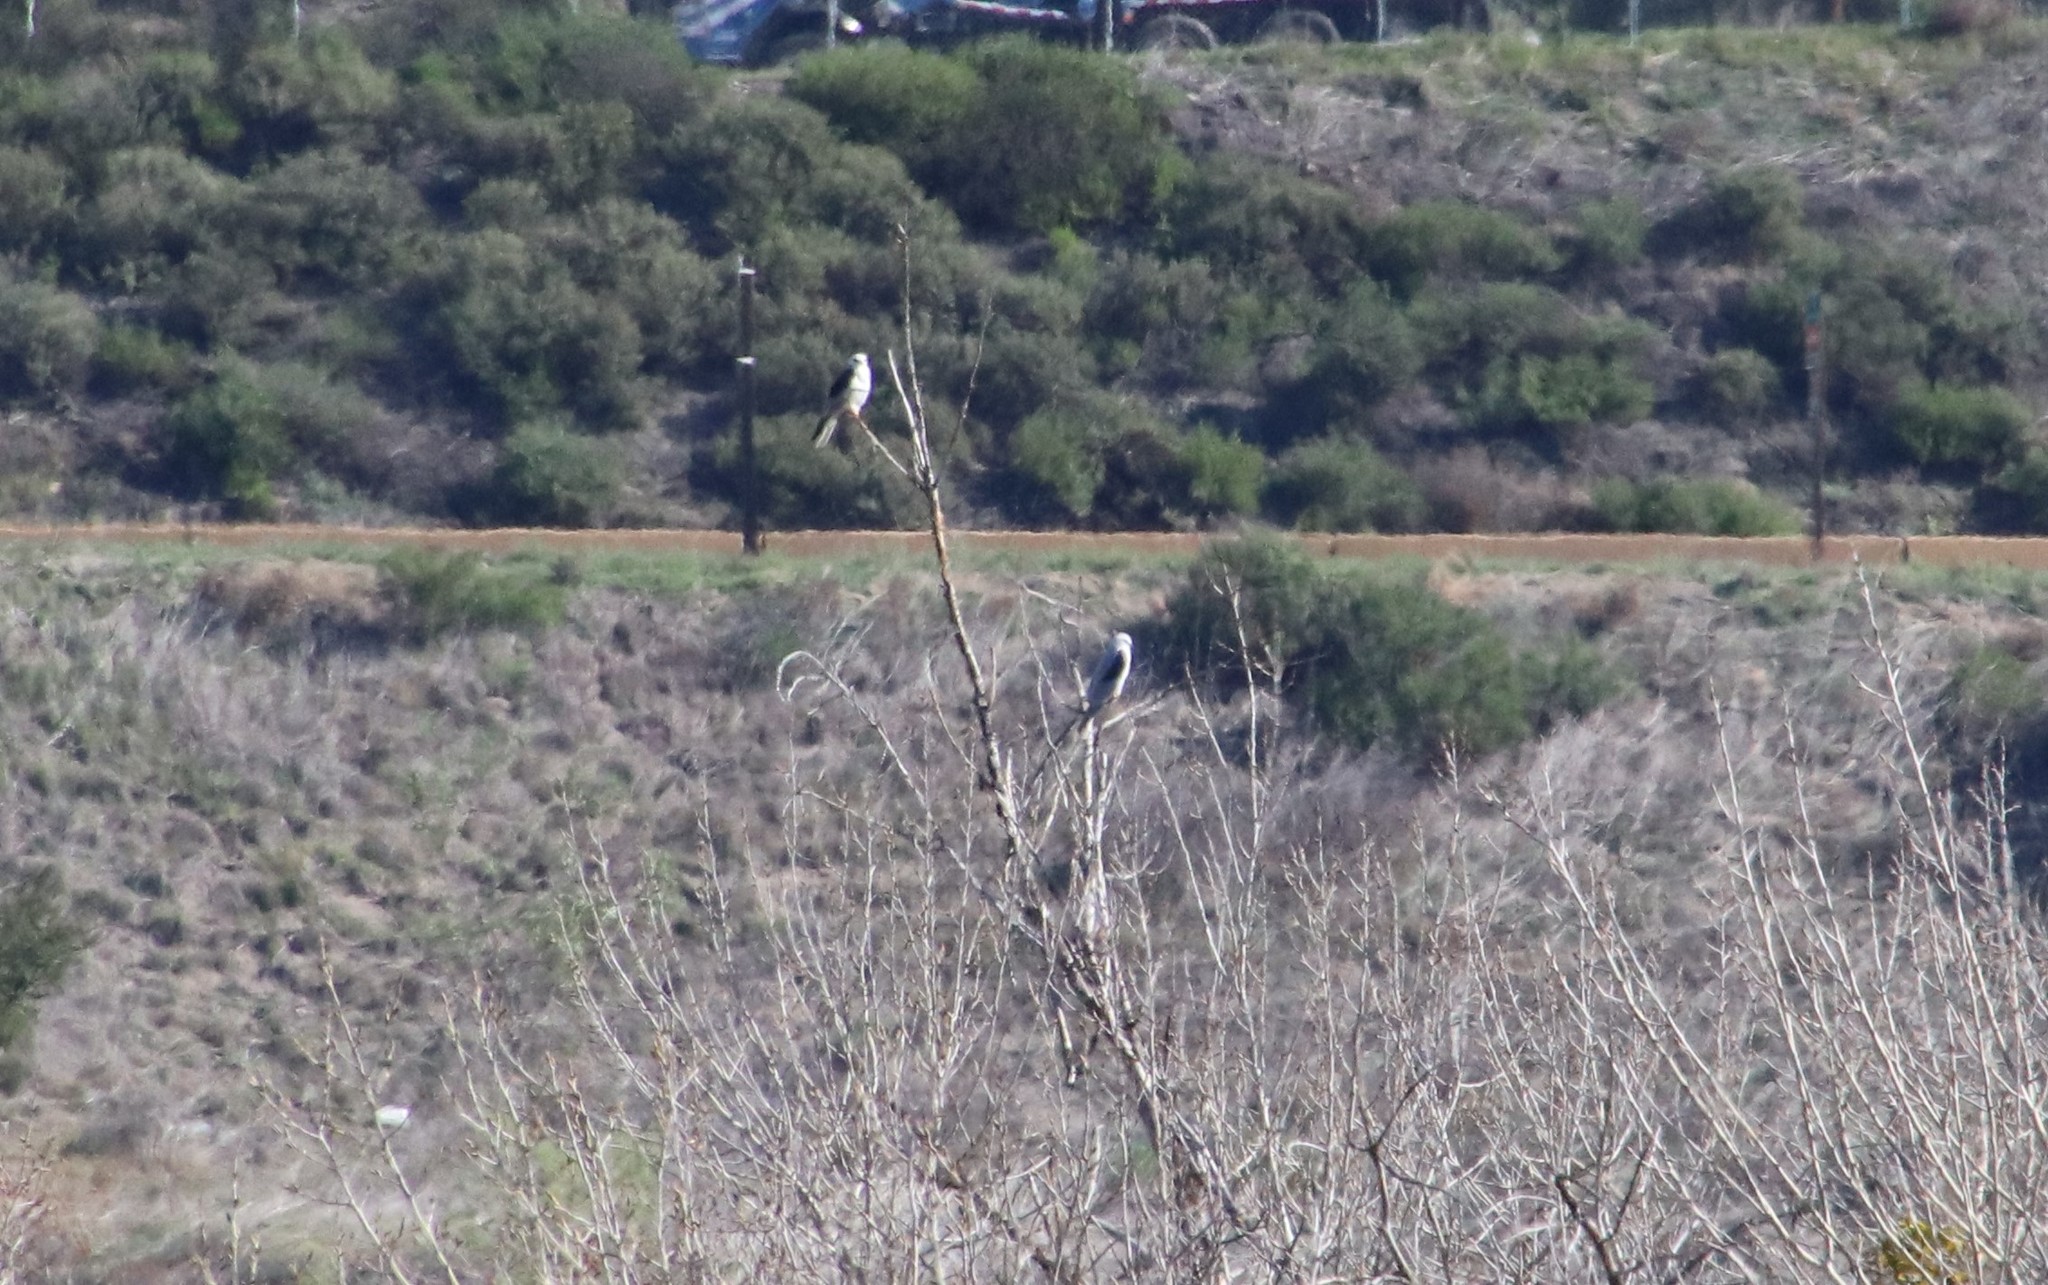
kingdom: Animalia
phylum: Chordata
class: Aves
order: Accipitriformes
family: Accipitridae
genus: Elanus
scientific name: Elanus leucurus
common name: White-tailed kite
